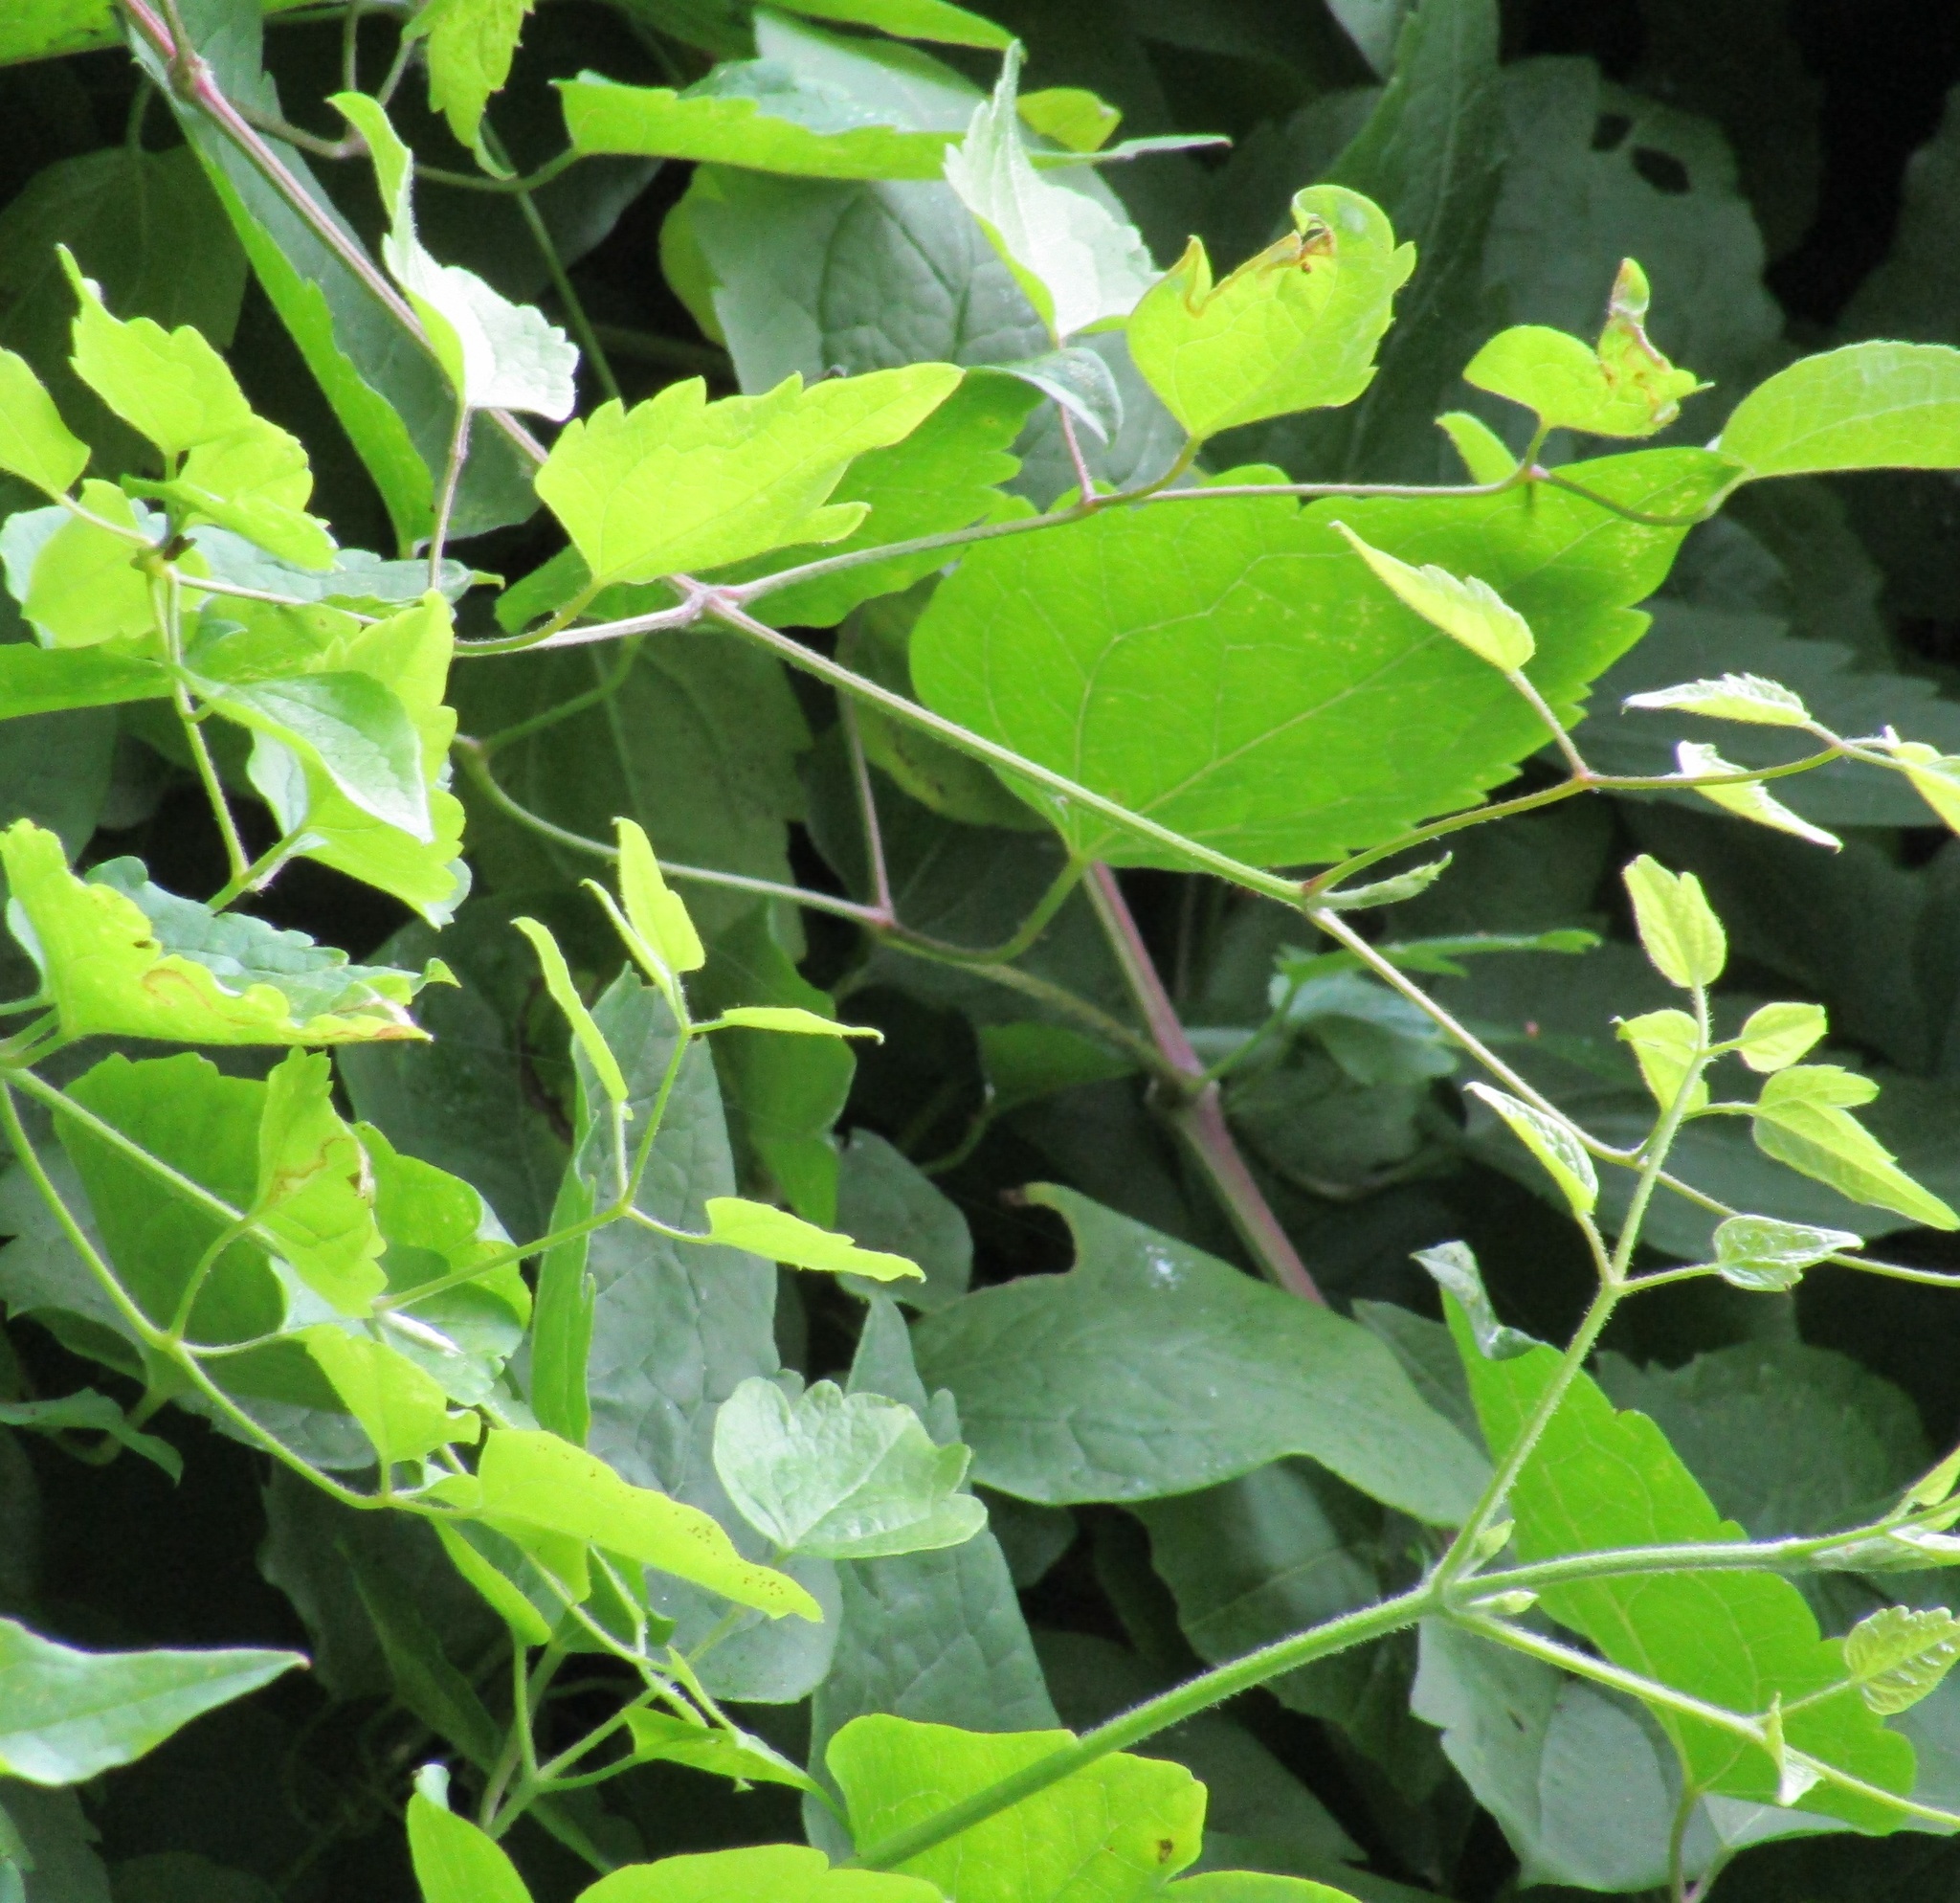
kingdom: Plantae
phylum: Tracheophyta
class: Magnoliopsida
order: Ranunculales
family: Ranunculaceae
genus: Clematis
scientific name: Clematis vitalba
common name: Evergreen clematis
